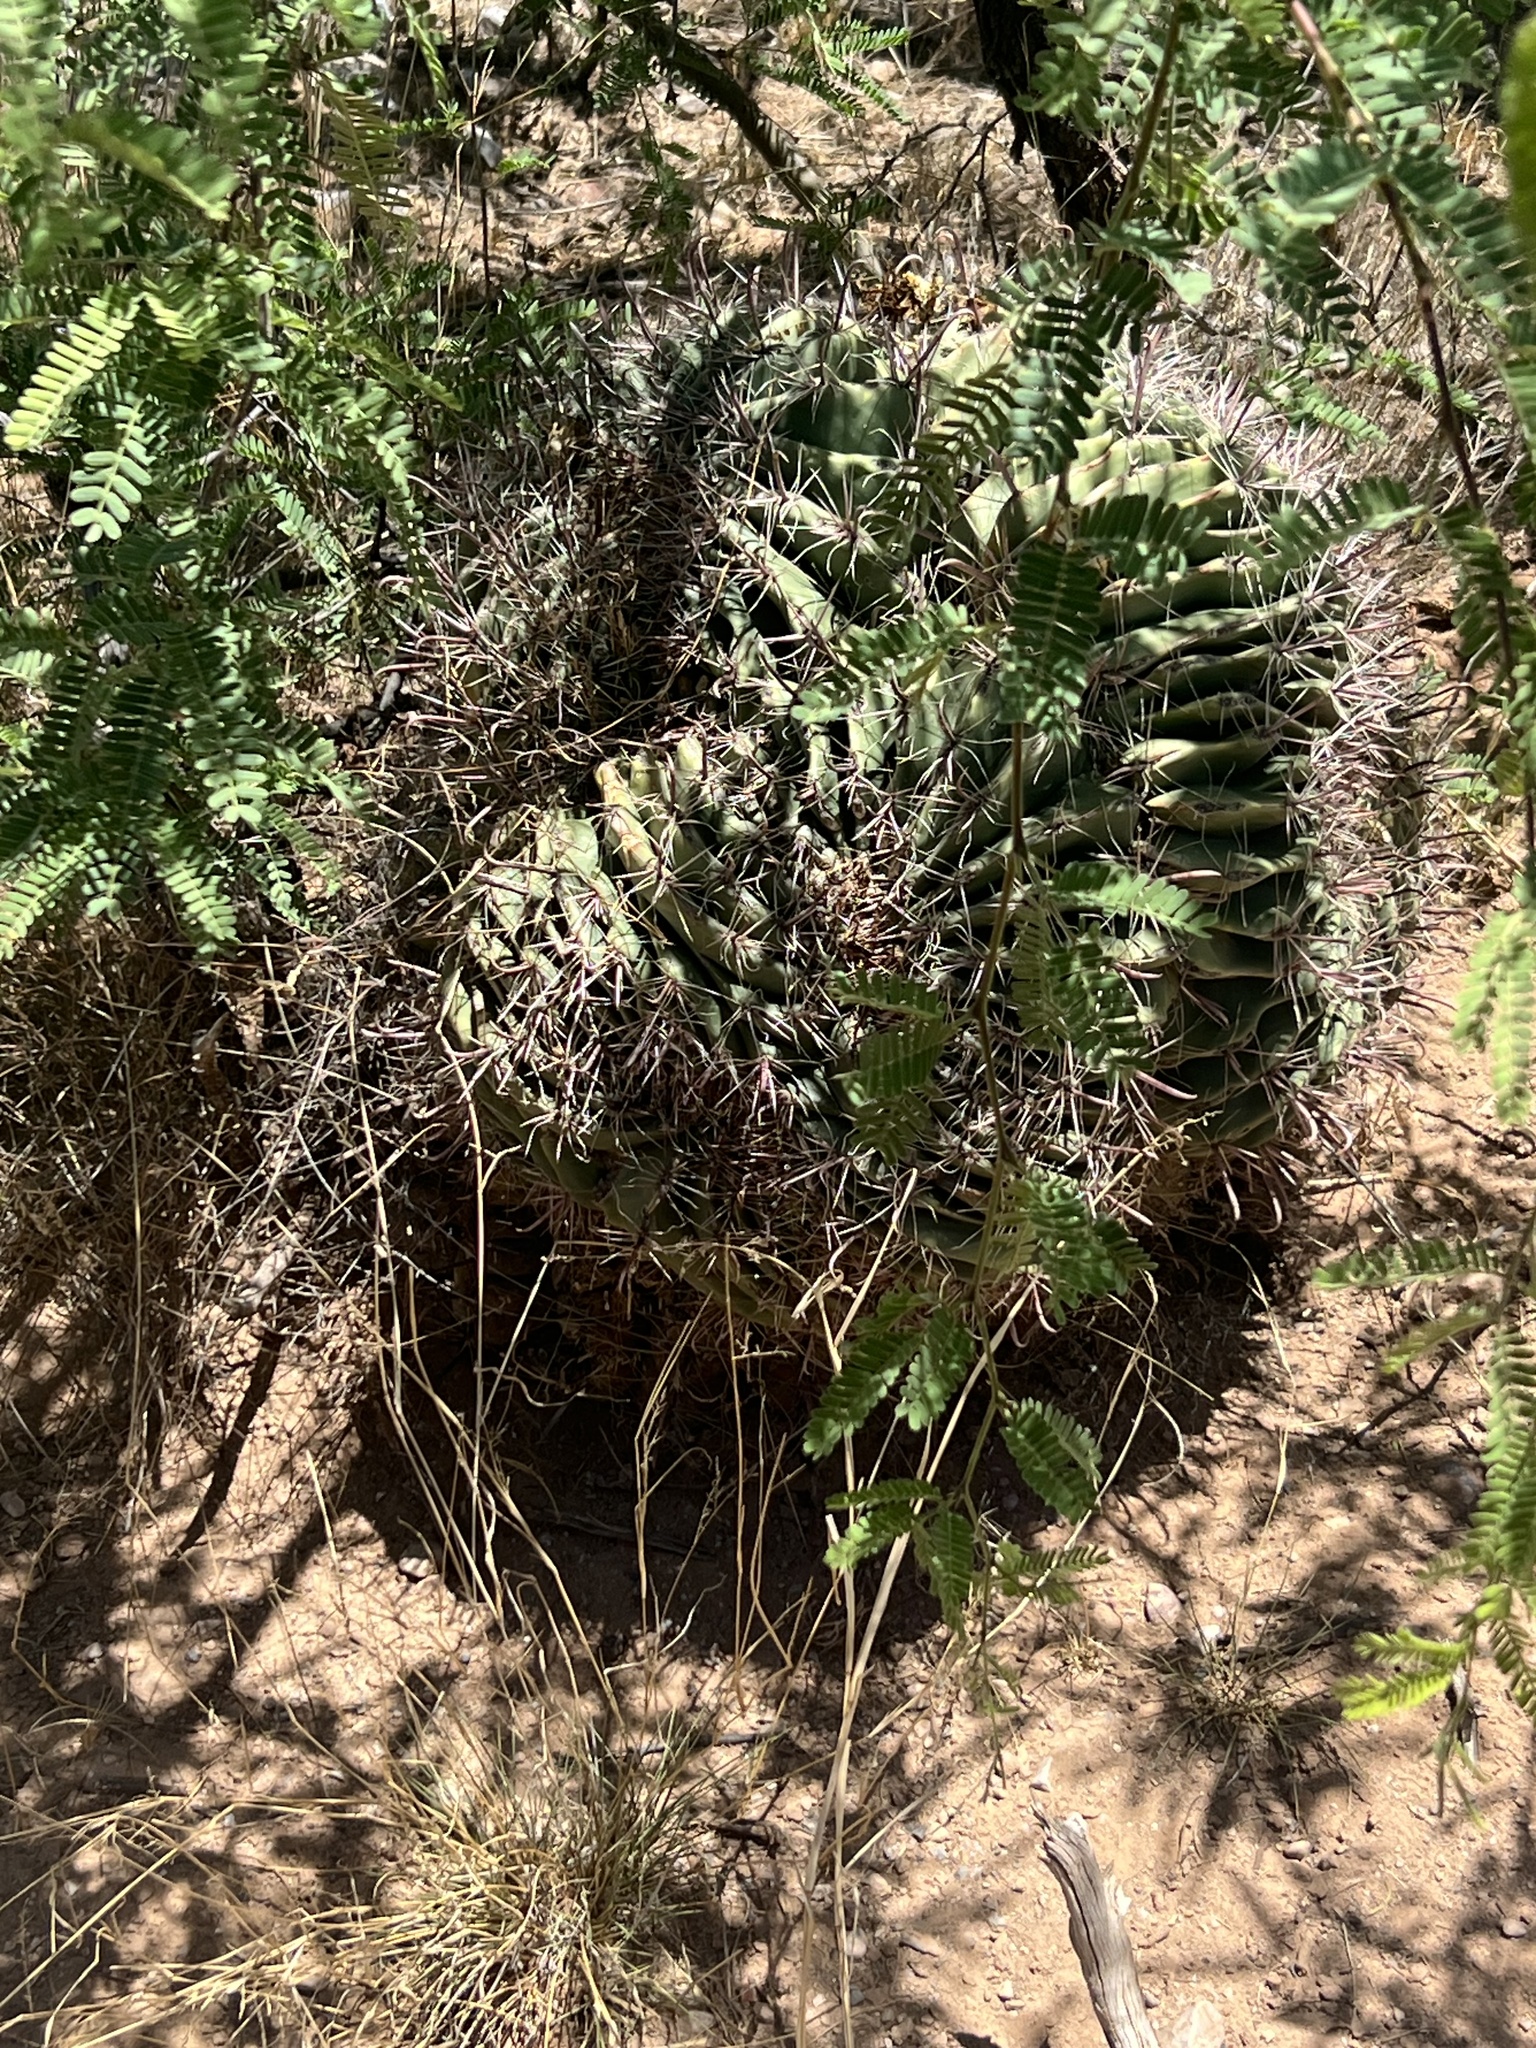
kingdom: Plantae
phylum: Tracheophyta
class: Magnoliopsida
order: Caryophyllales
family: Cactaceae
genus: Ferocactus
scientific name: Ferocactus wislizeni
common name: Candy barrel cactus
